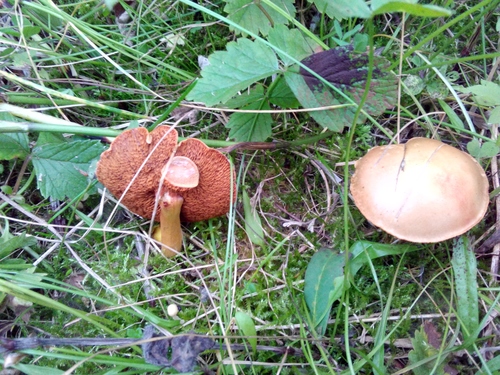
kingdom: Fungi
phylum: Basidiomycota
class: Agaricomycetes
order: Boletales
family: Boletaceae
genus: Chalciporus
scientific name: Chalciporus piperatus
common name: Peppery bolete
